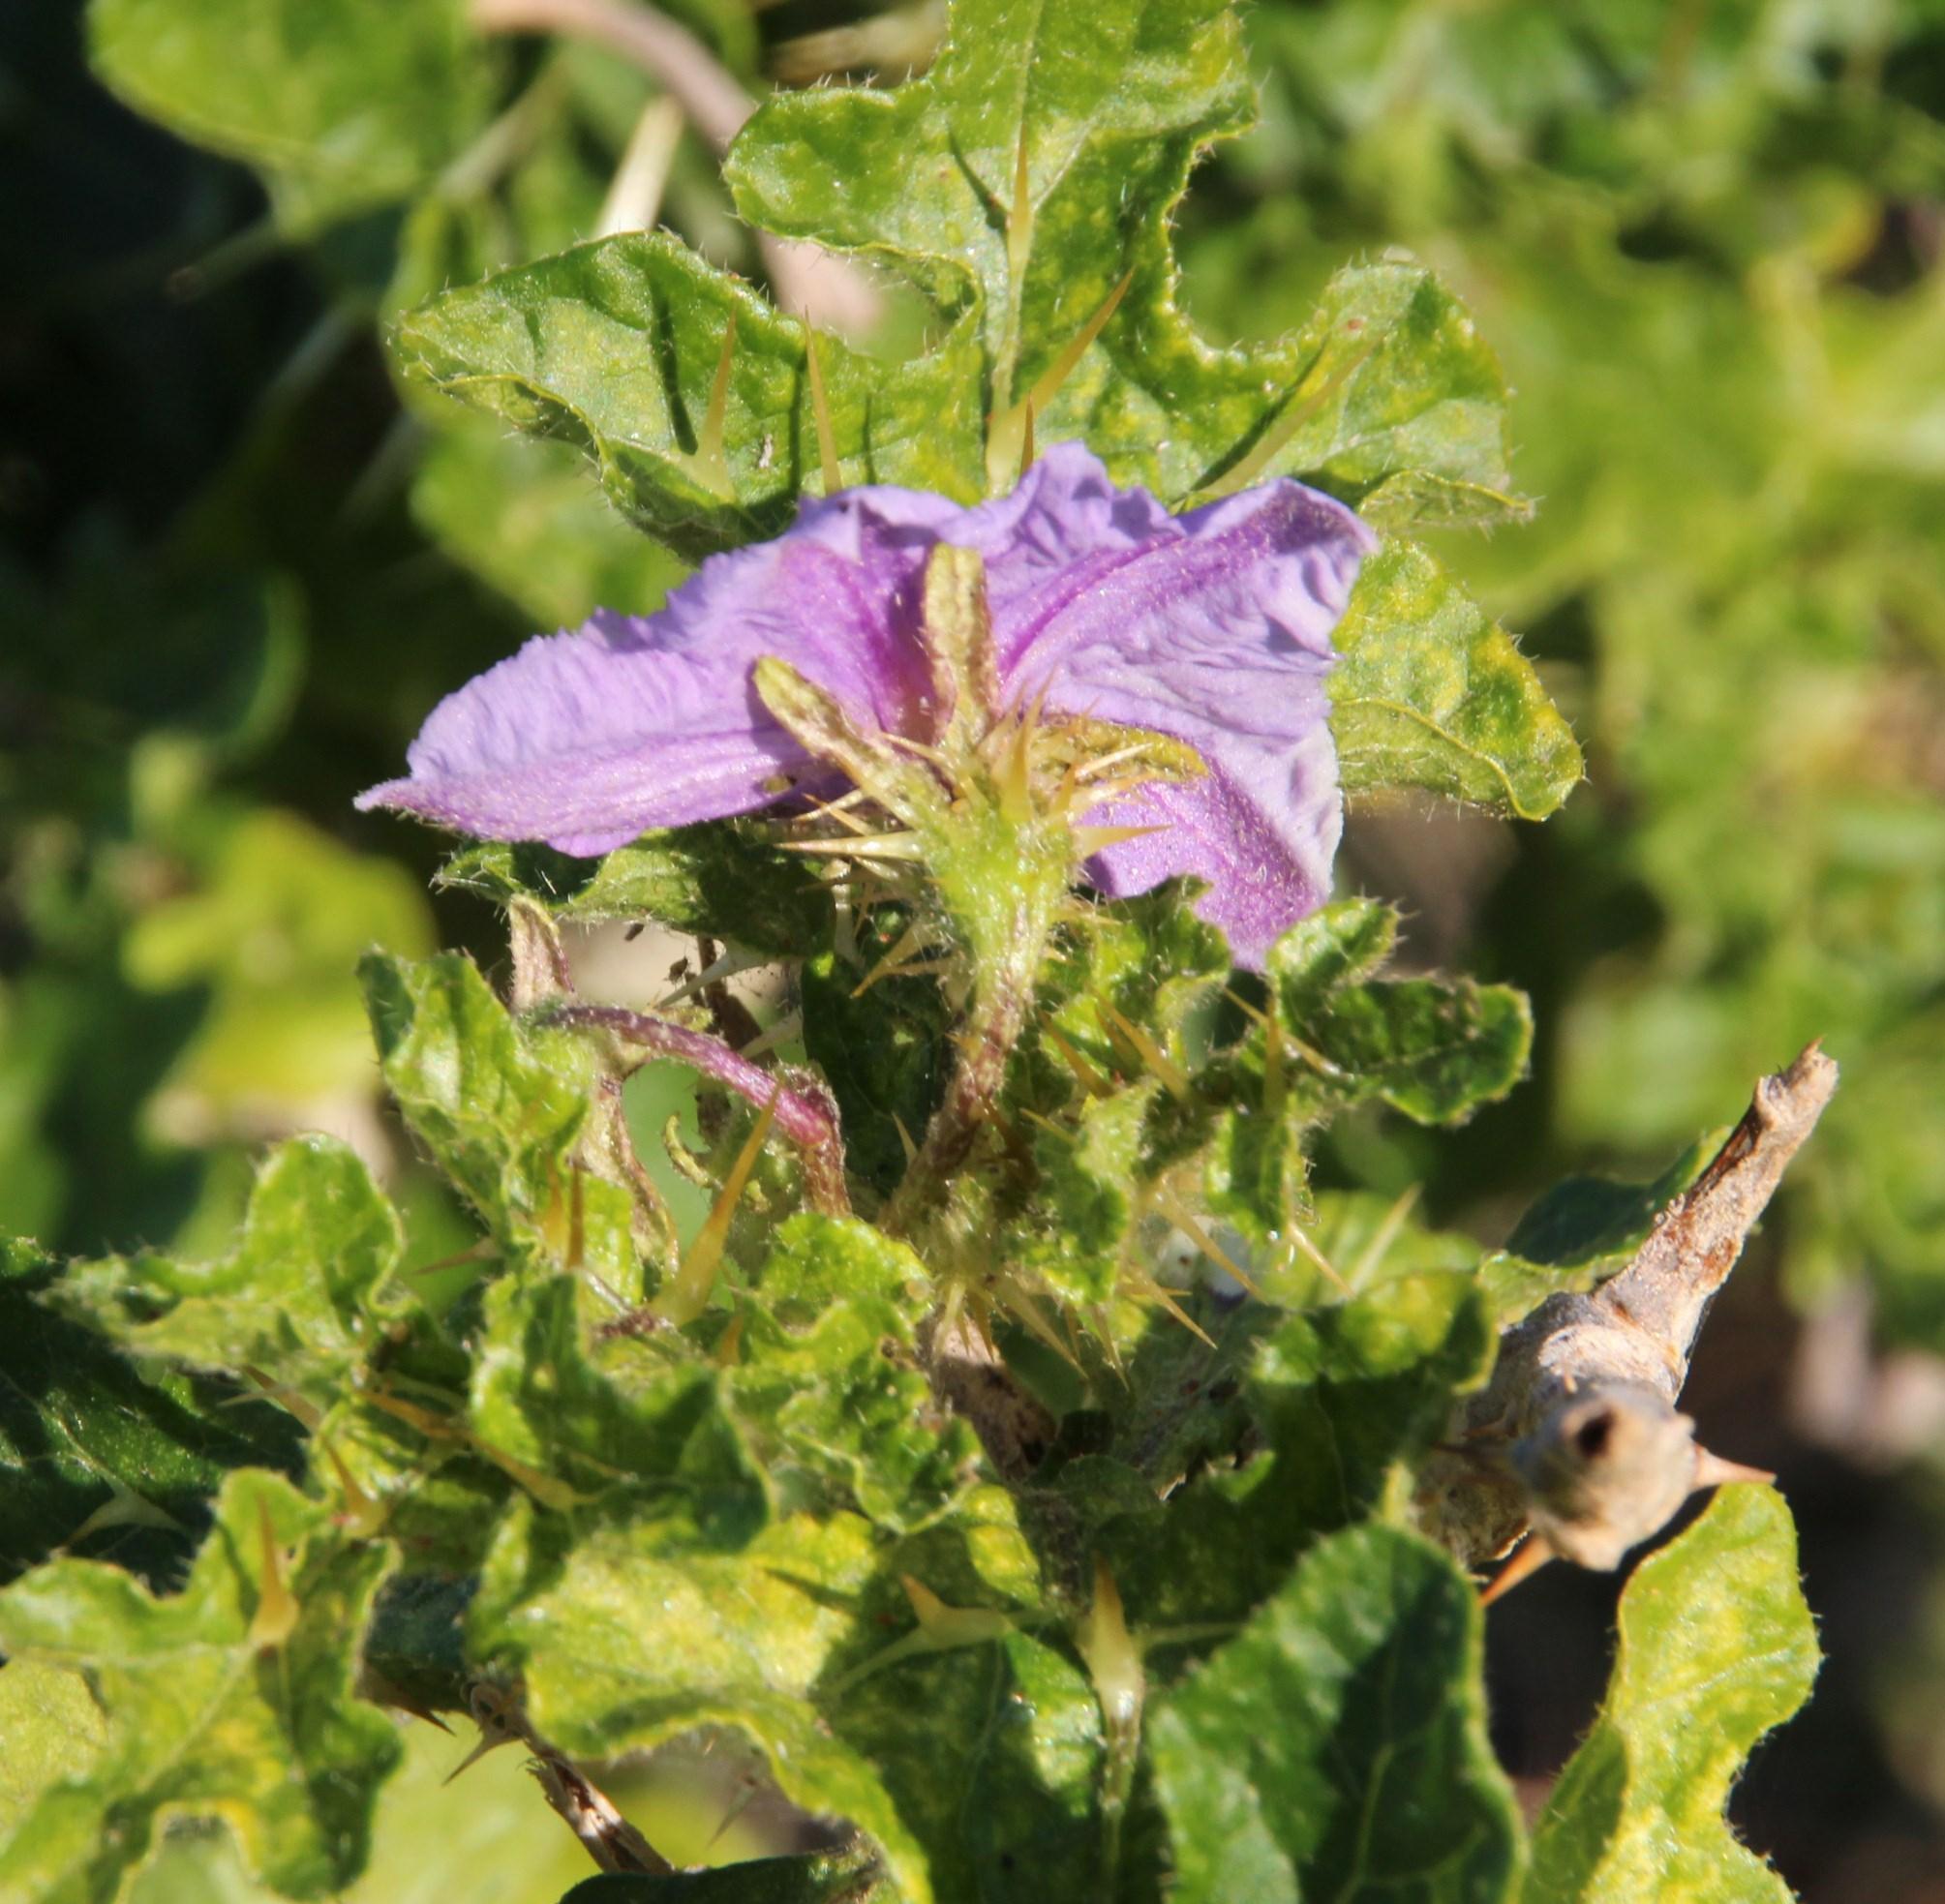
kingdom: Plantae
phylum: Tracheophyta
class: Magnoliopsida
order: Solanales
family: Solanaceae
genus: Solanum
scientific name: Solanum linnaeanum
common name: Nightshade
